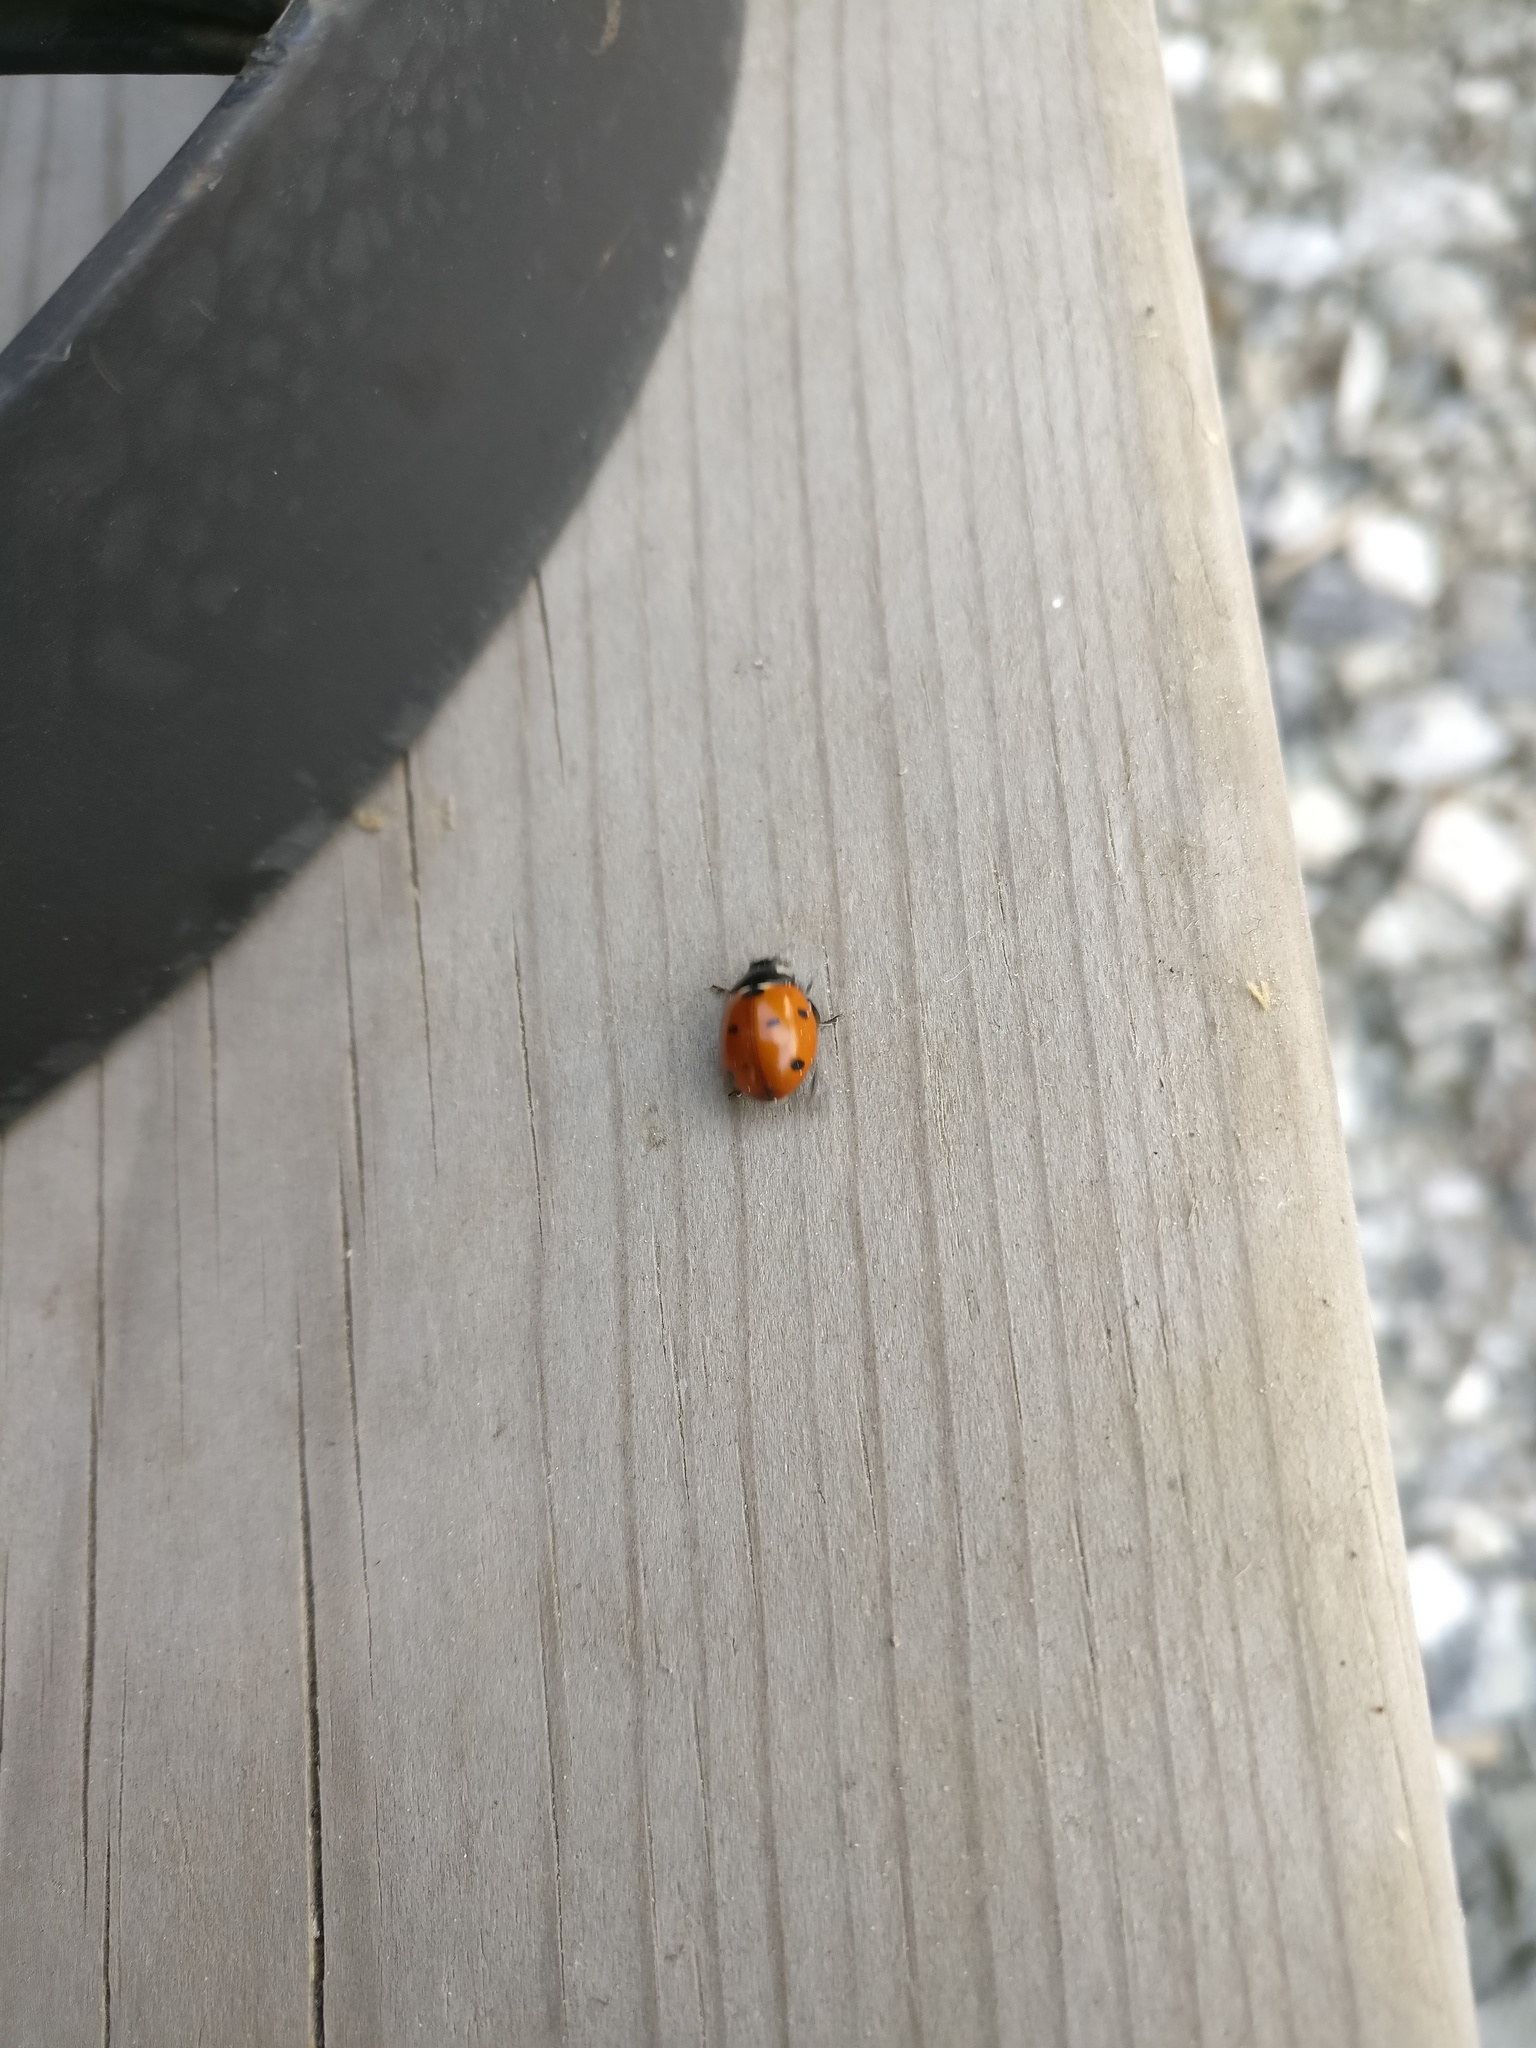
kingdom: Animalia
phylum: Arthropoda
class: Insecta
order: Coleoptera
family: Coccinellidae
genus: Coccinella
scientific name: Coccinella septempunctata
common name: Sevenspotted lady beetle
